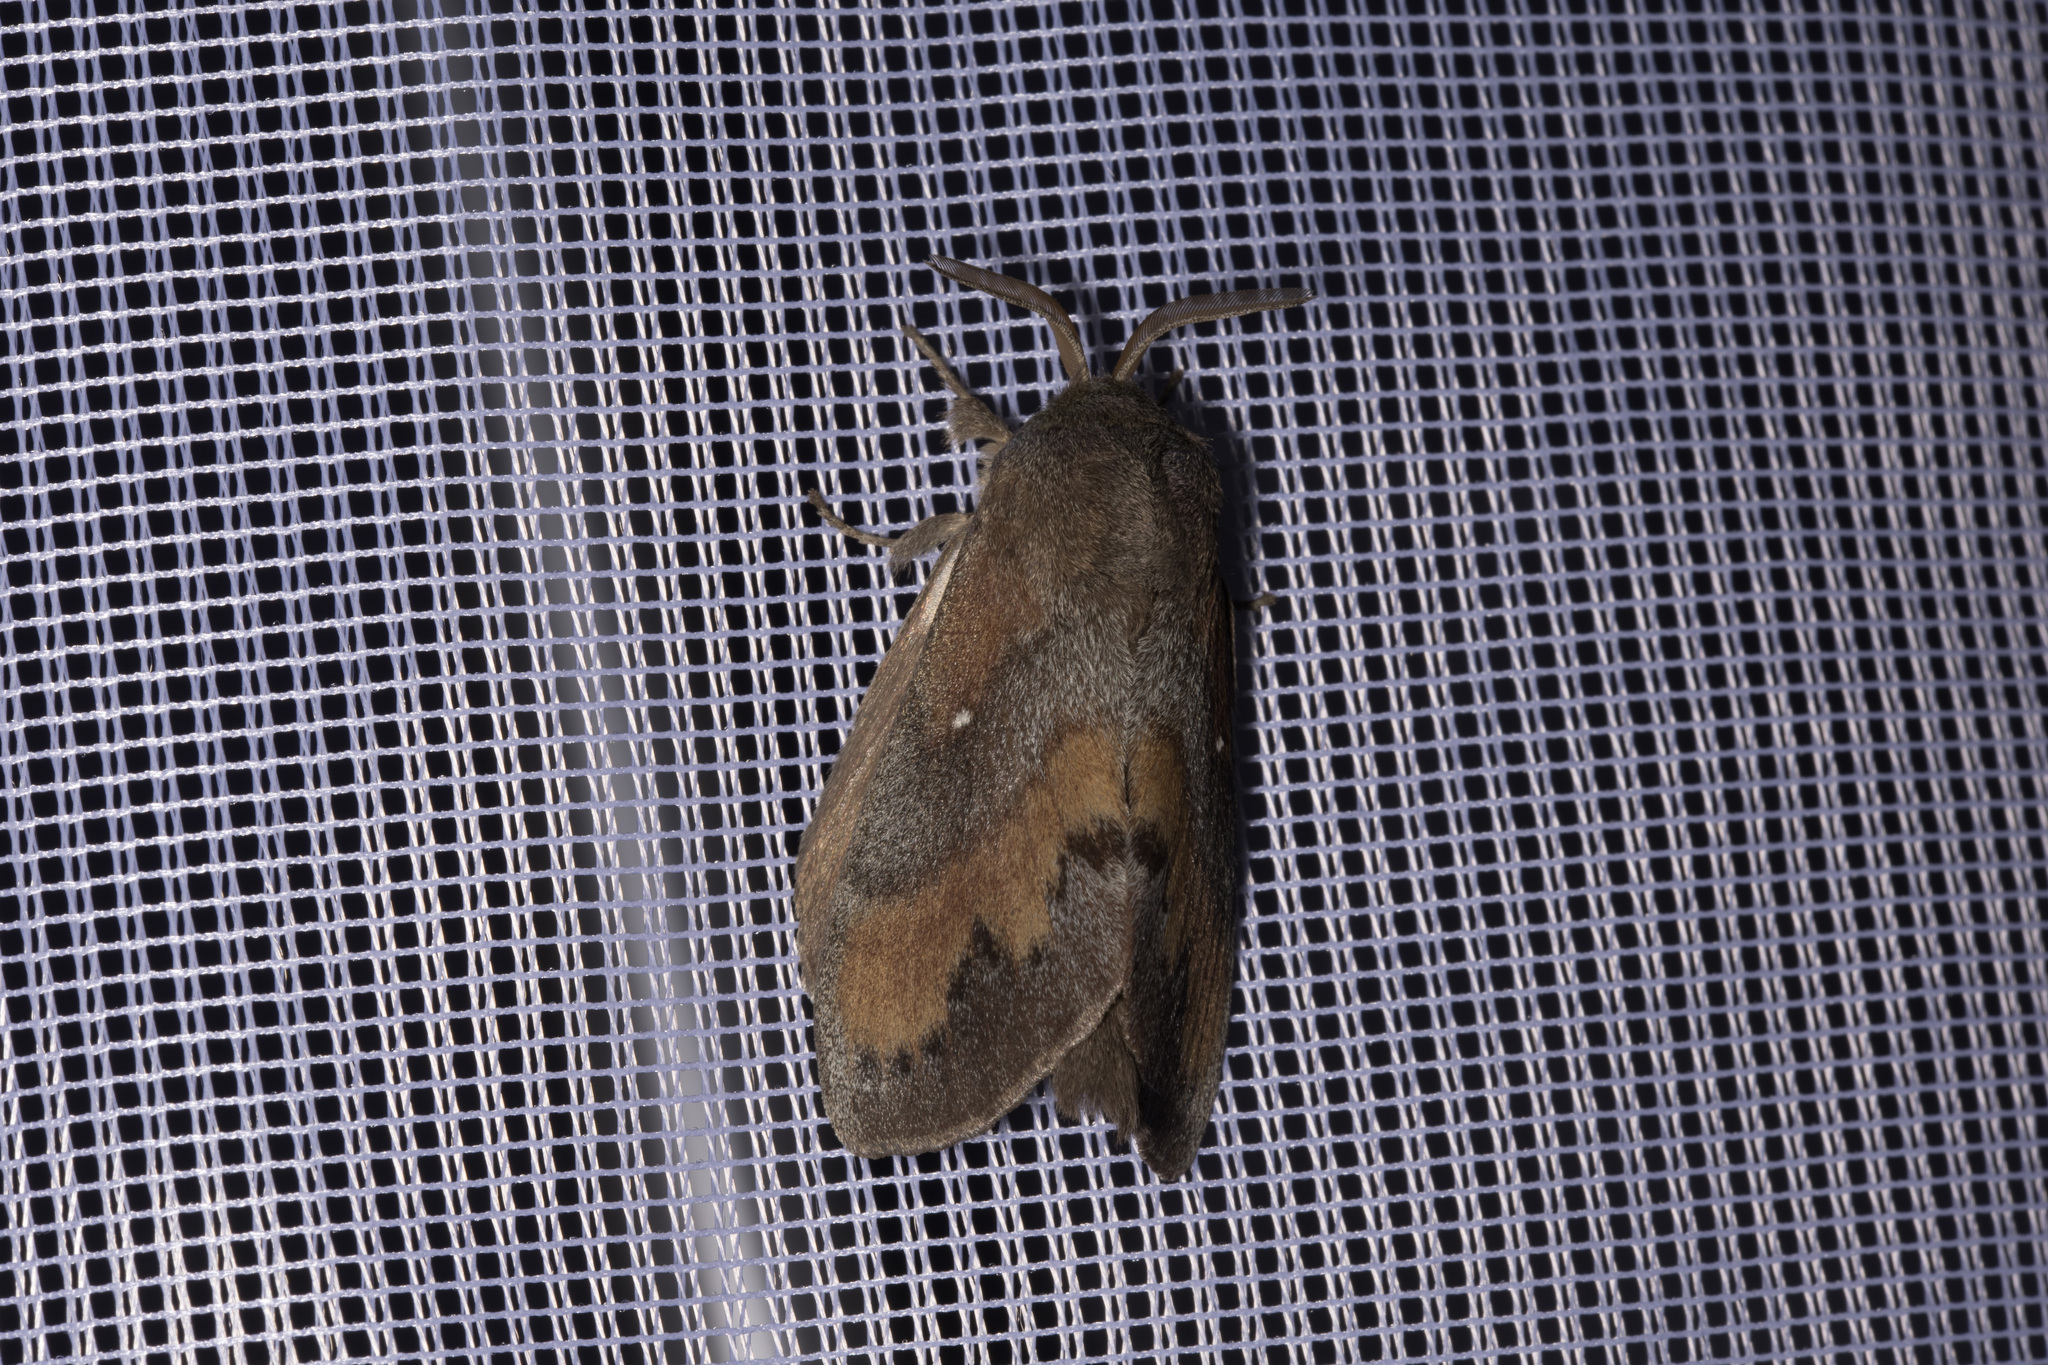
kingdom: Animalia
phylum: Arthropoda
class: Insecta
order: Lepidoptera
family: Lasiocampidae
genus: Dendrolimus
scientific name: Dendrolimus pini
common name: Pine-tree lappet
